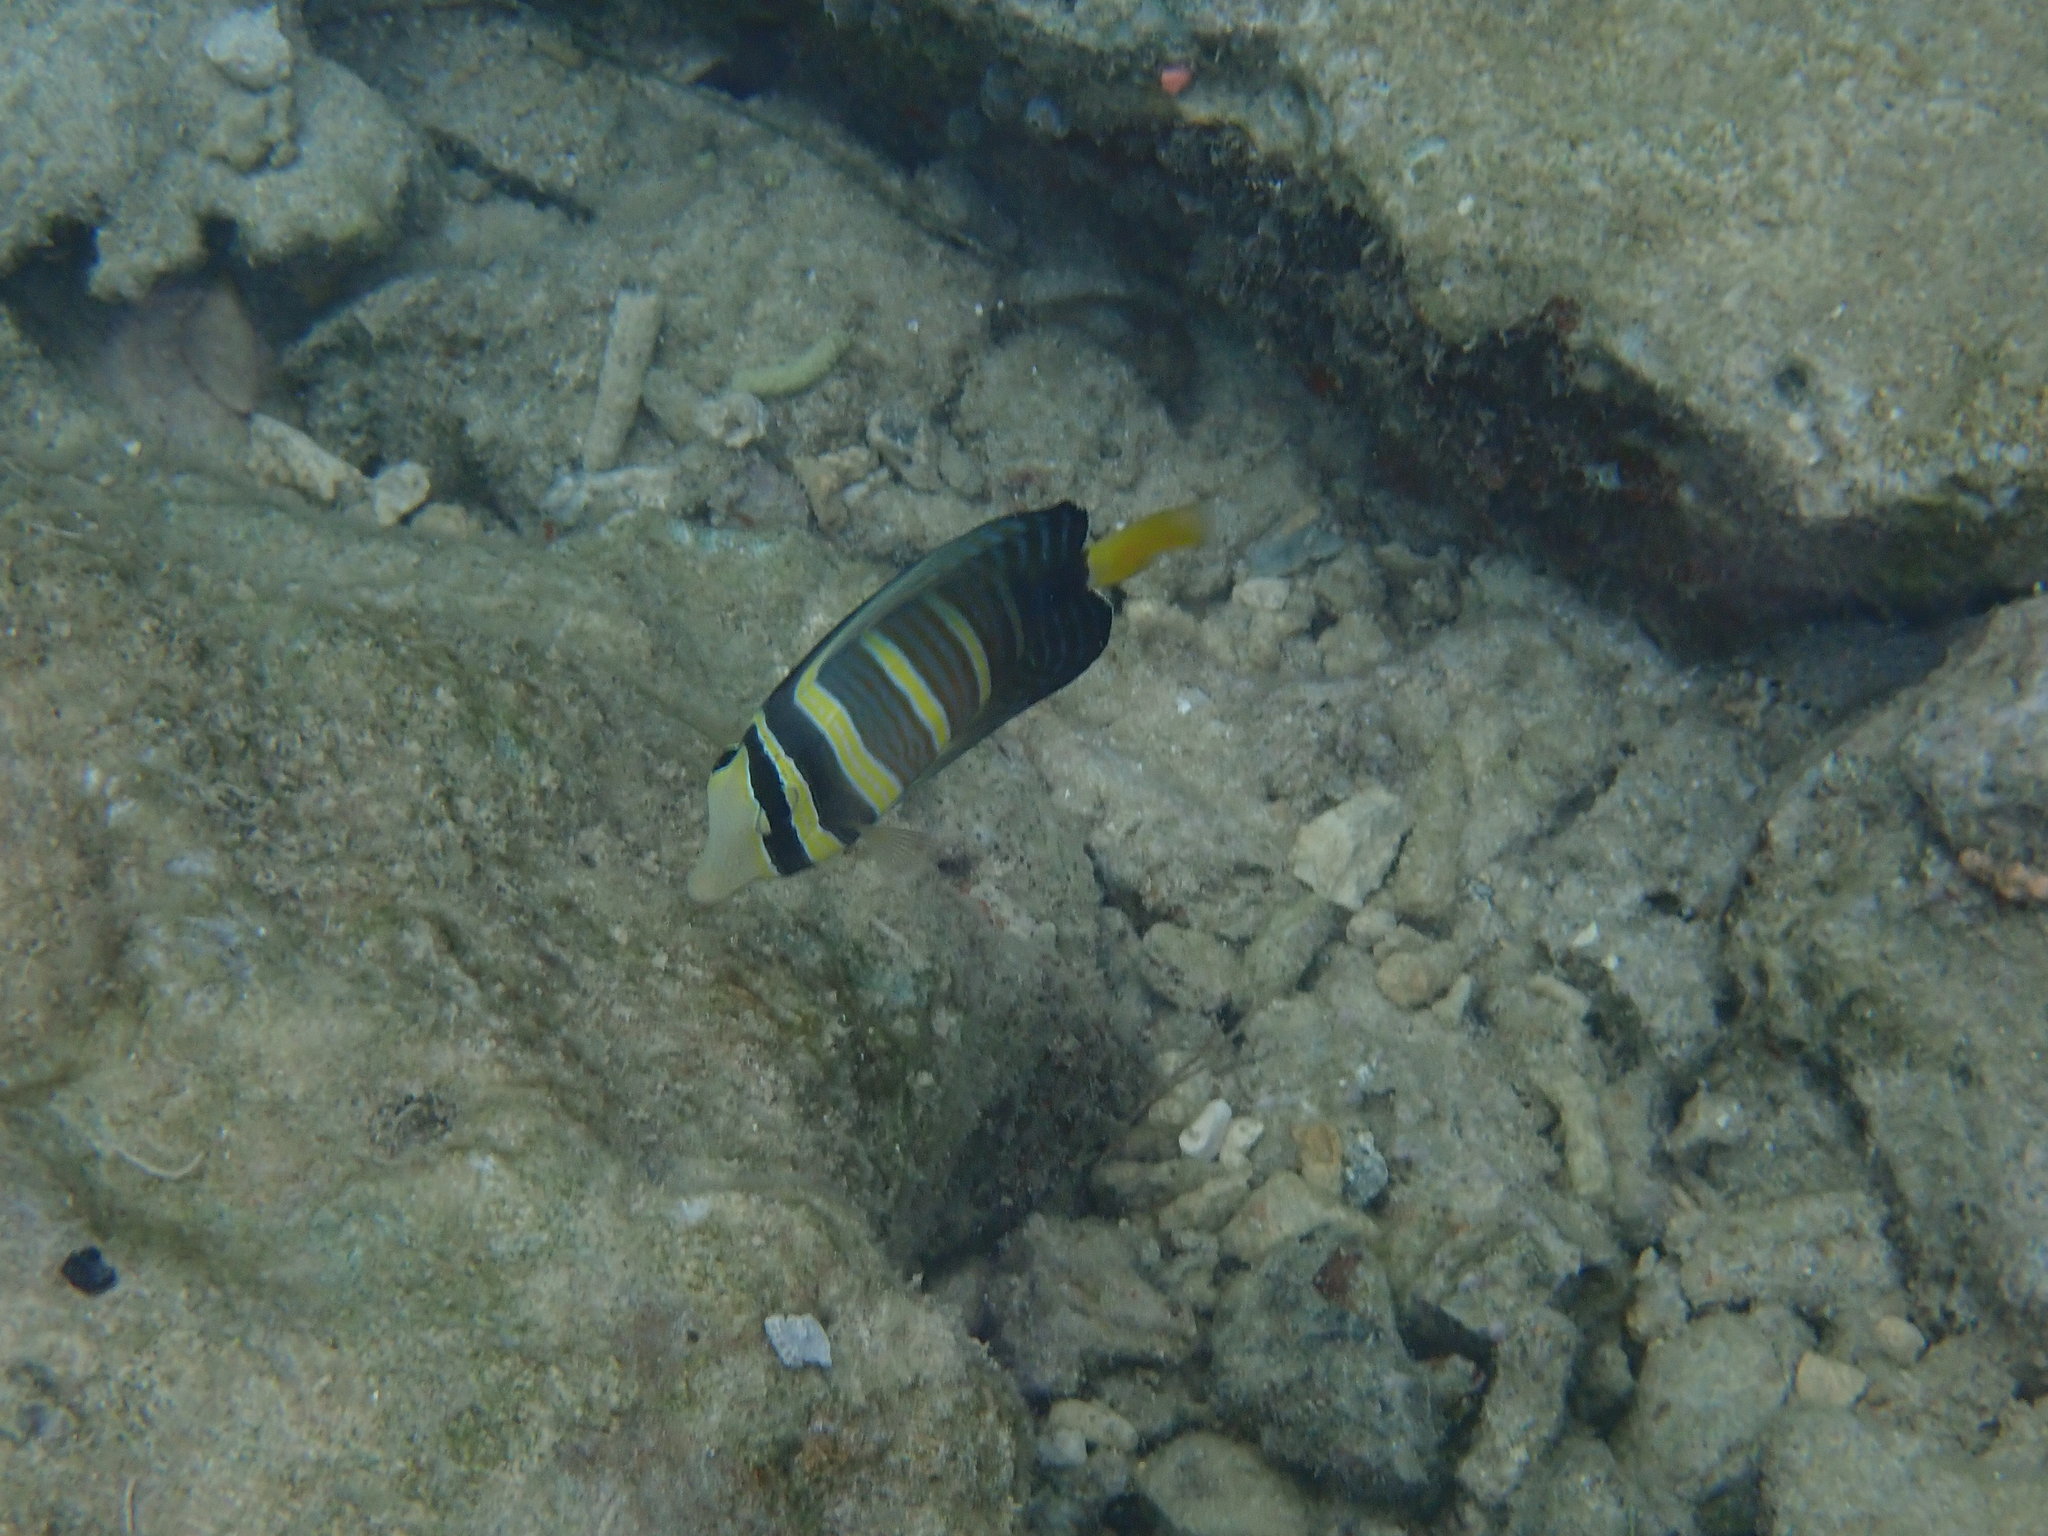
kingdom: Animalia
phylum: Chordata
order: Perciformes
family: Acanthuridae
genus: Zebrasoma
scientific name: Zebrasoma veliferum
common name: Sailfin surgeonfish
